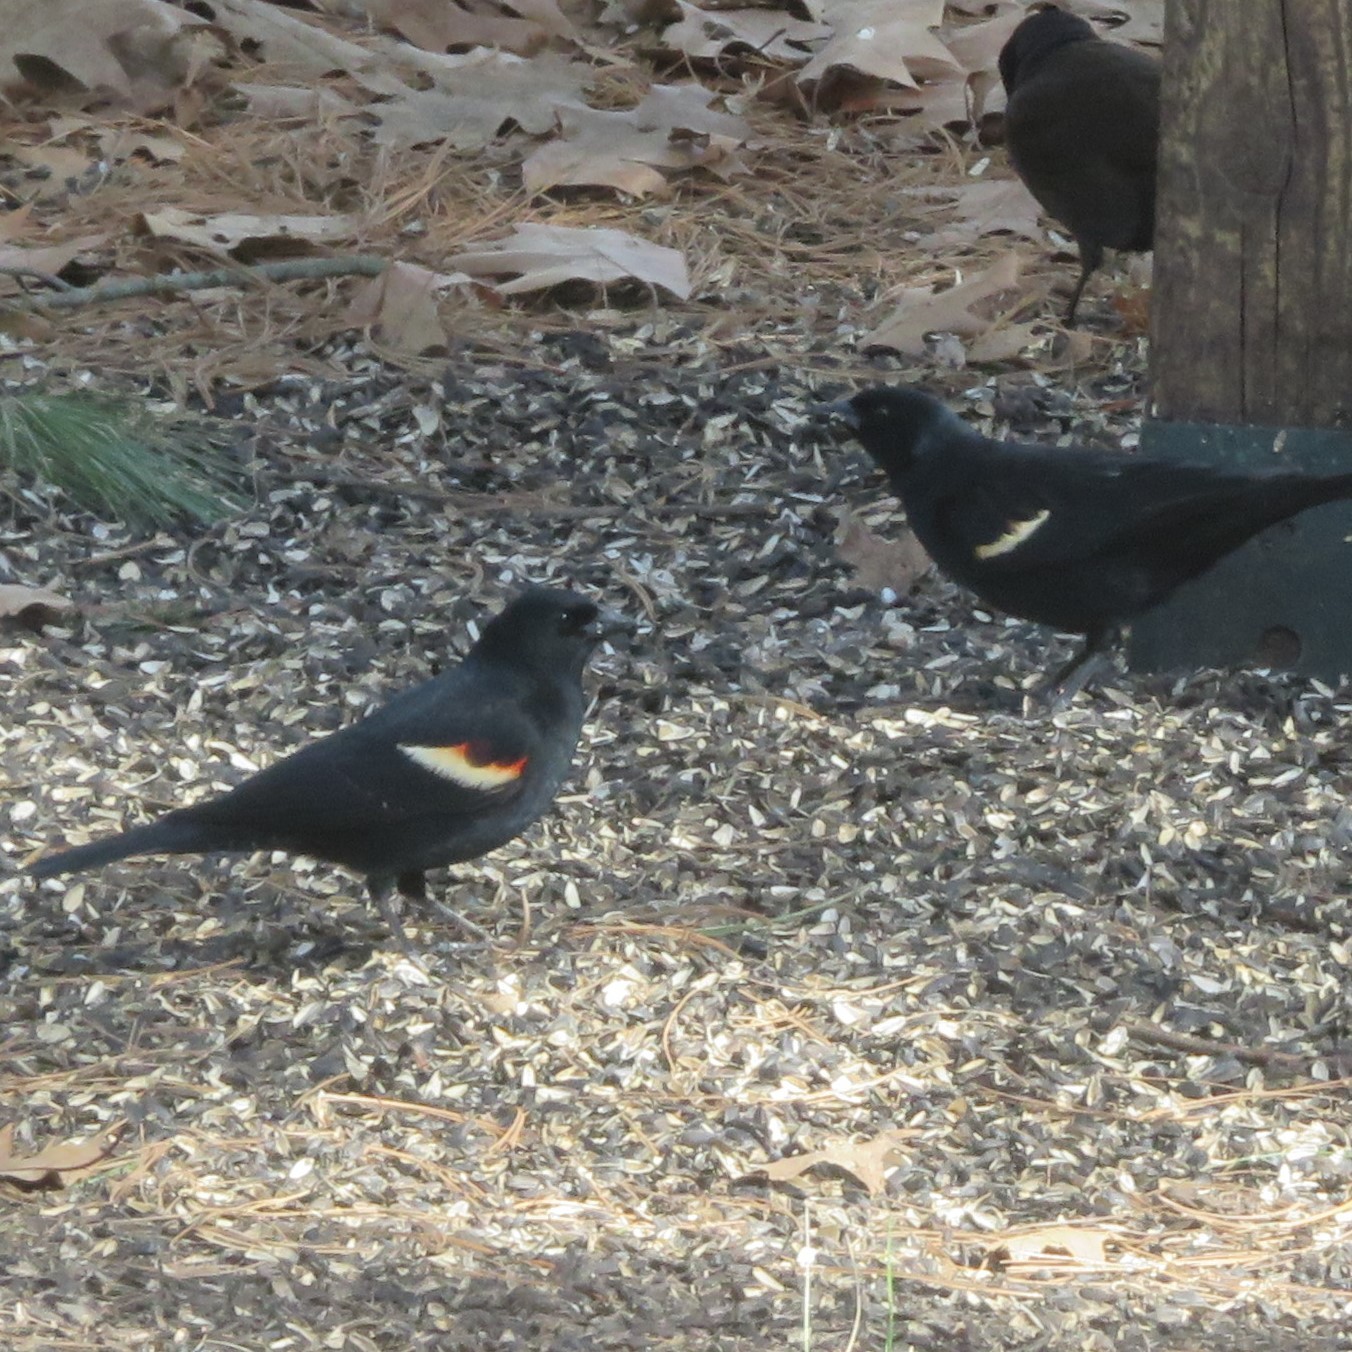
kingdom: Animalia
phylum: Chordata
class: Aves
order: Passeriformes
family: Icteridae
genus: Agelaius
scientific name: Agelaius phoeniceus
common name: Red-winged blackbird
